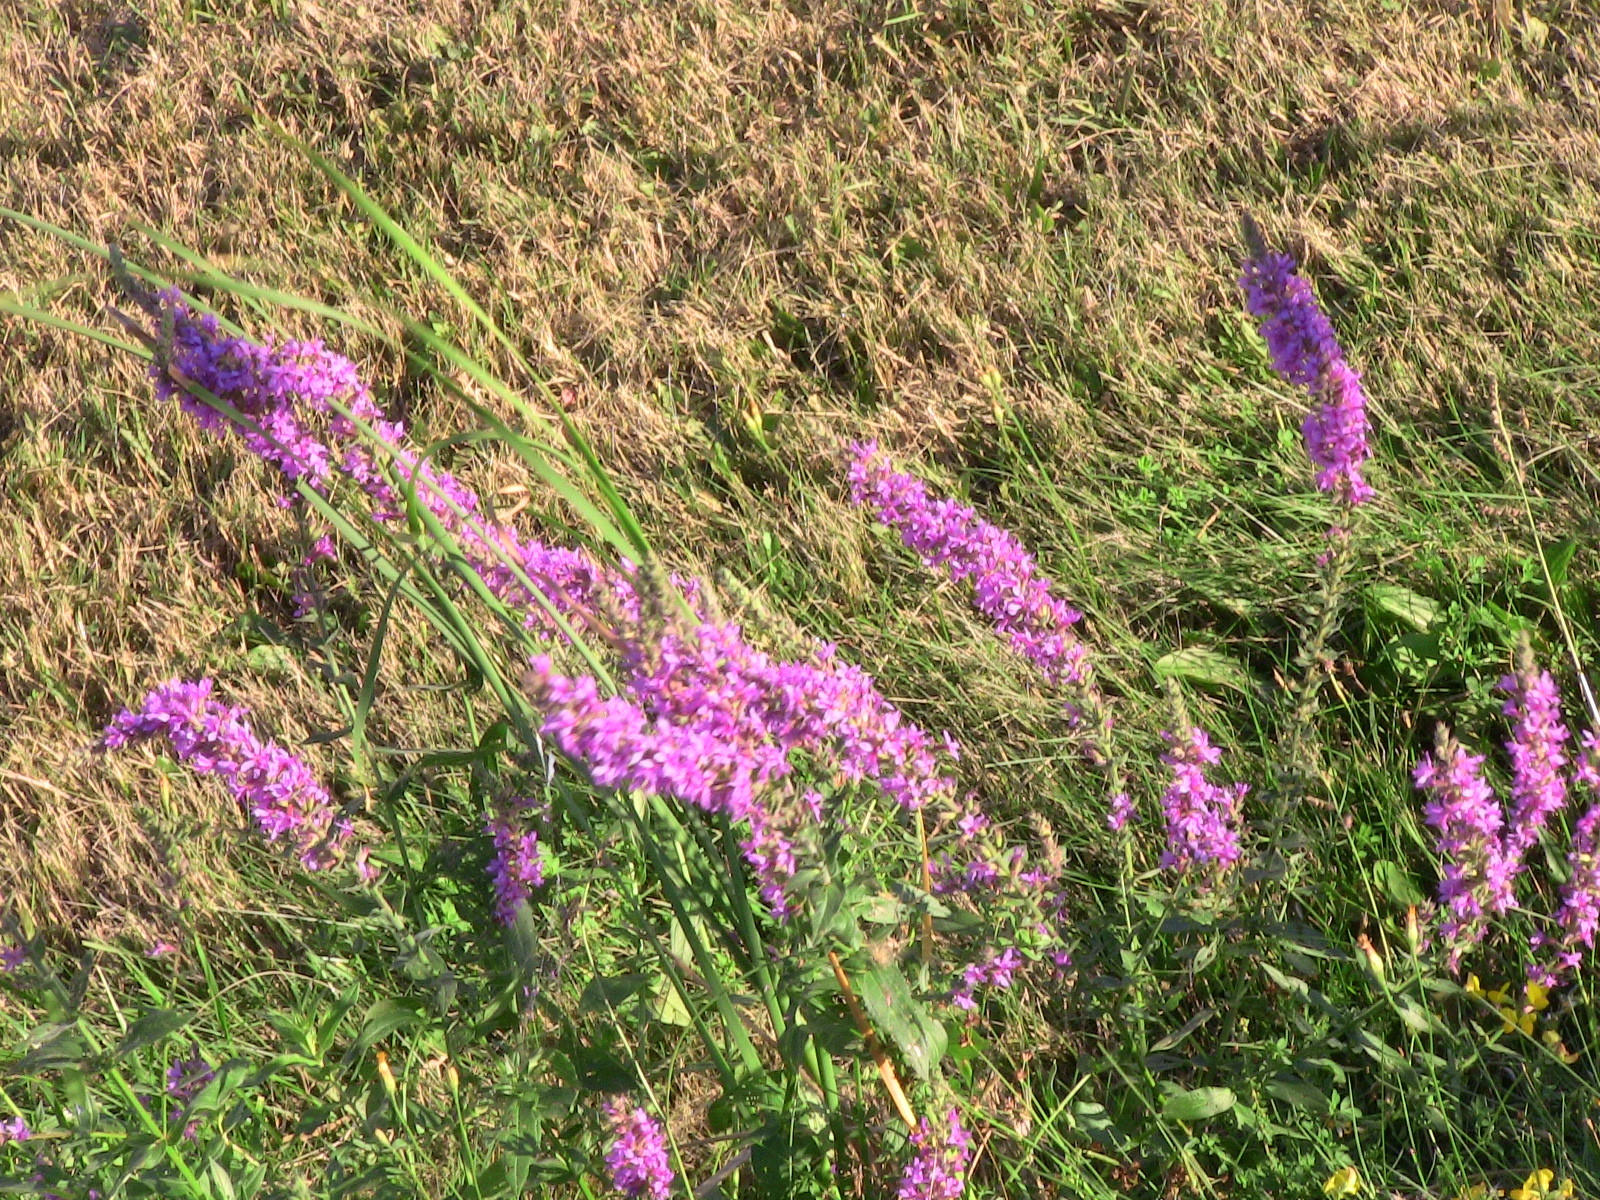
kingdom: Plantae
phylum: Tracheophyta
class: Magnoliopsida
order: Myrtales
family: Lythraceae
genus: Lythrum
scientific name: Lythrum salicaria
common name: Purple loosestrife
